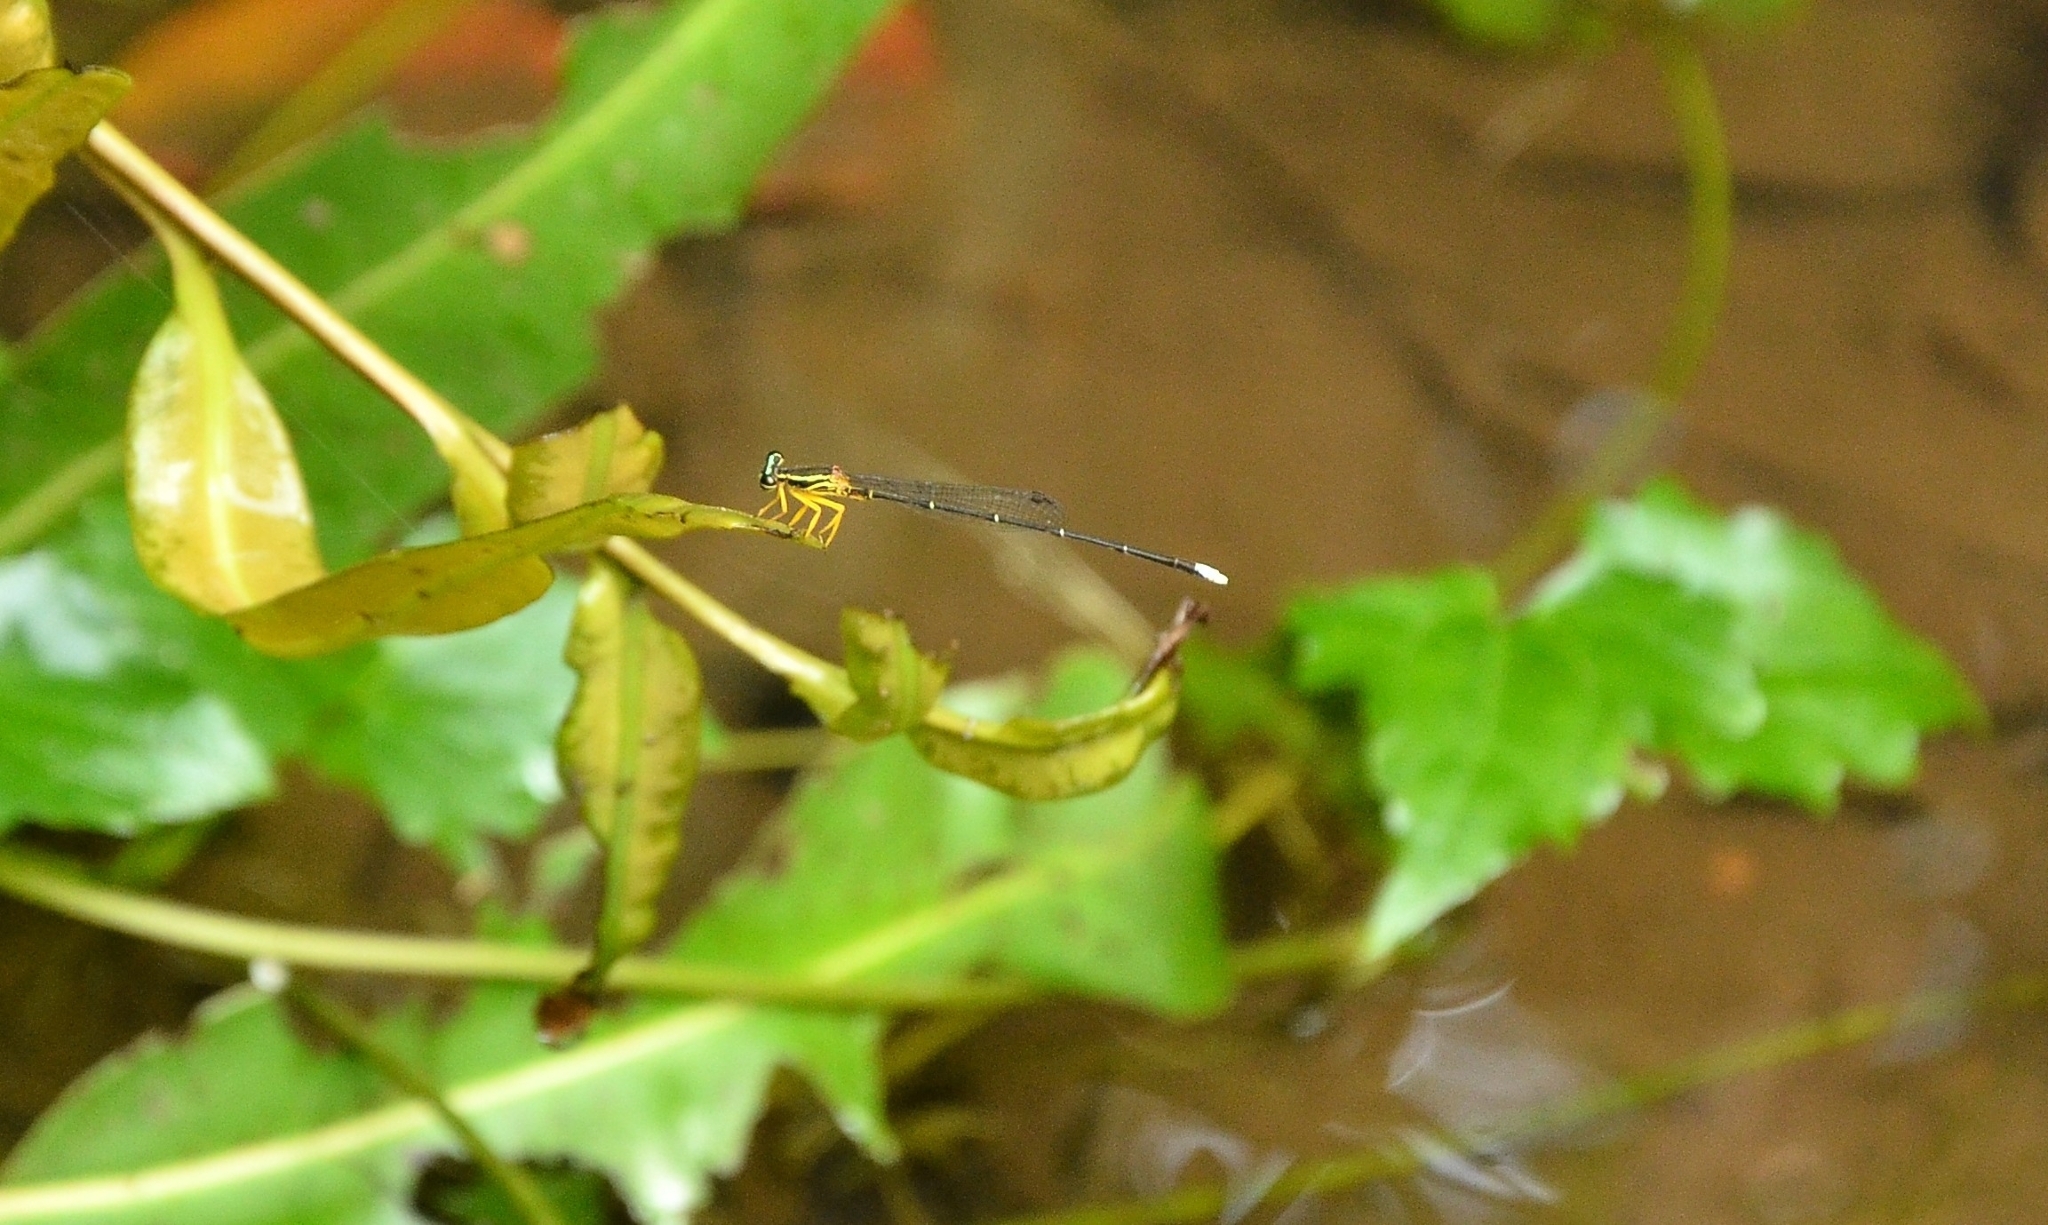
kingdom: Animalia
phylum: Arthropoda
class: Insecta
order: Odonata
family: Platycnemididae
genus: Copera
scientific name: Copera marginipes
